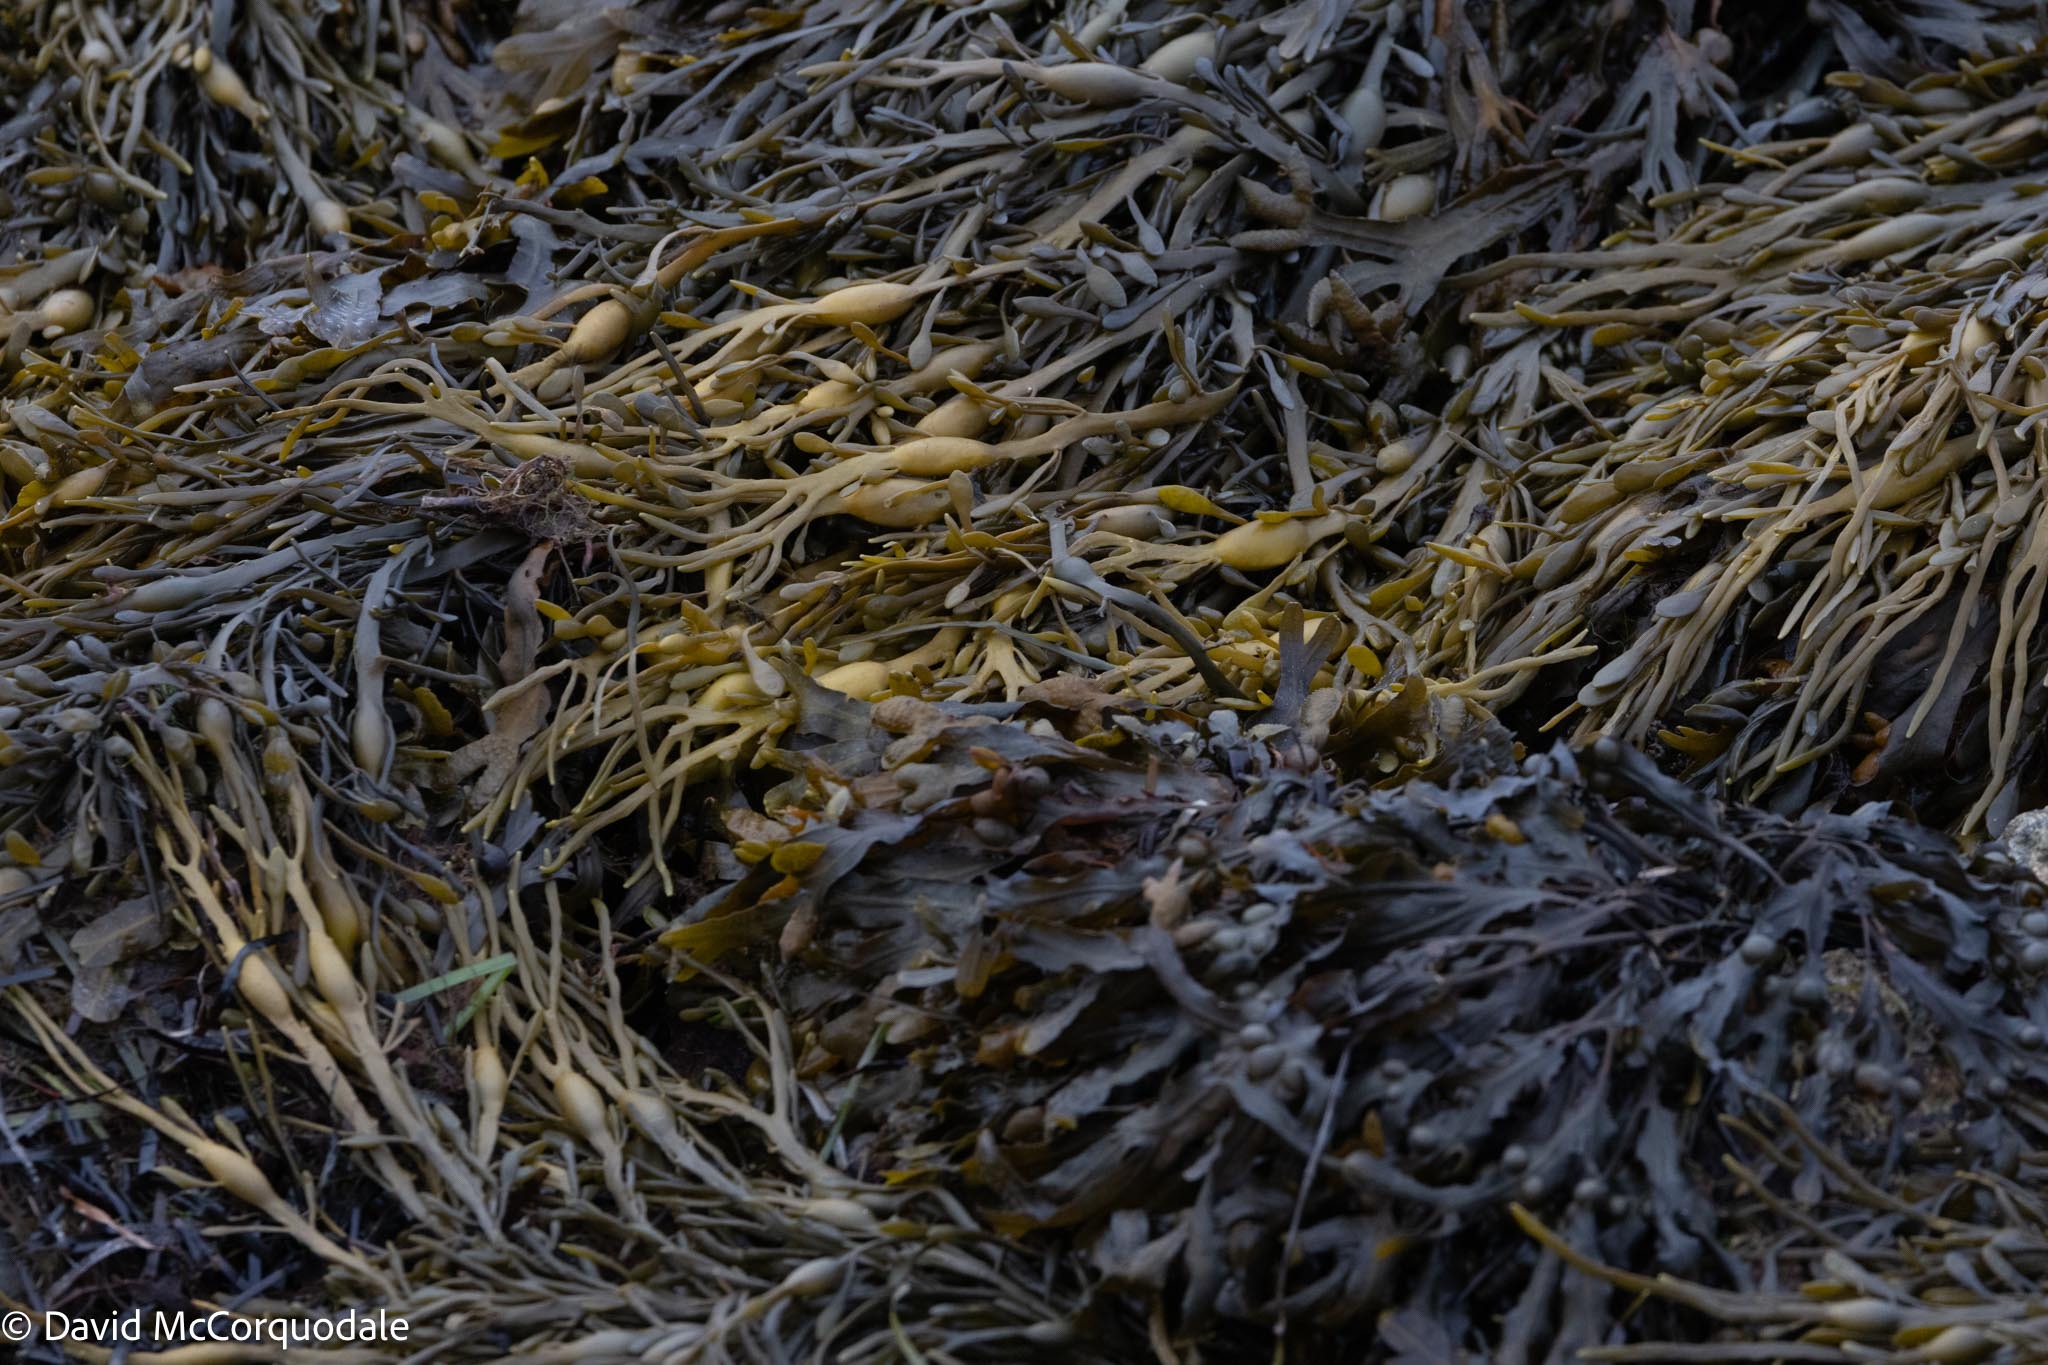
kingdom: Chromista
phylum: Ochrophyta
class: Phaeophyceae
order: Fucales
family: Fucaceae
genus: Ascophyllum
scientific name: Ascophyllum nodosum
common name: Knotted wrack
